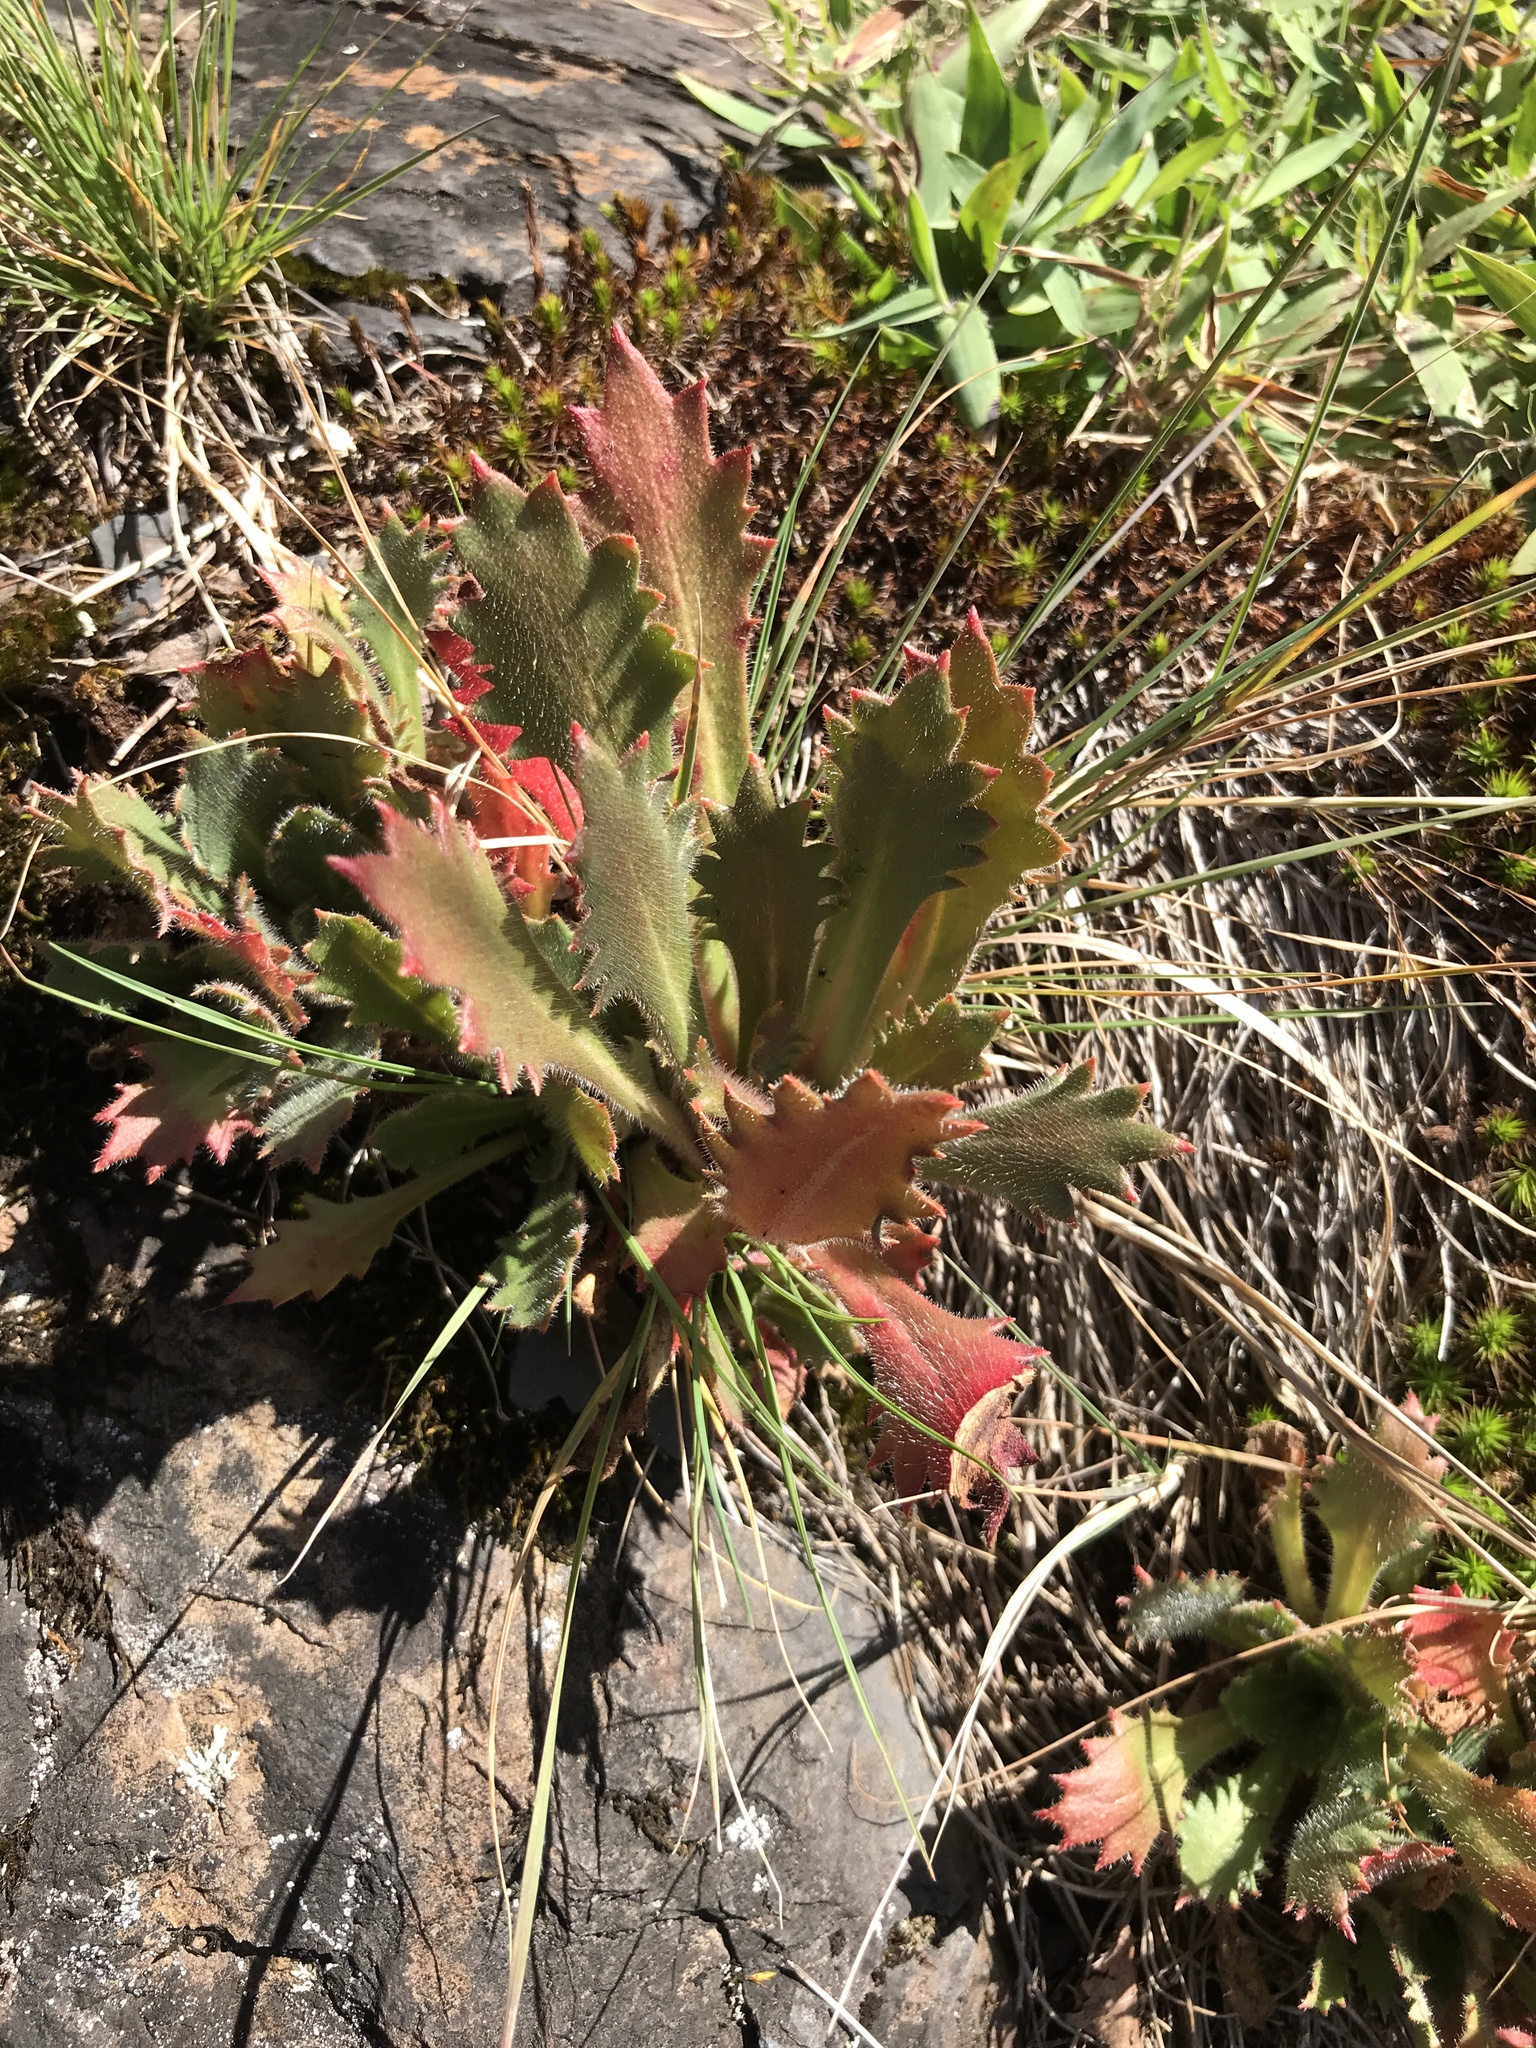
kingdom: Plantae
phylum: Tracheophyta
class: Magnoliopsida
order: Saxifragales
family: Saxifragaceae
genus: Micranthes
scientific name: Micranthes petiolaris
